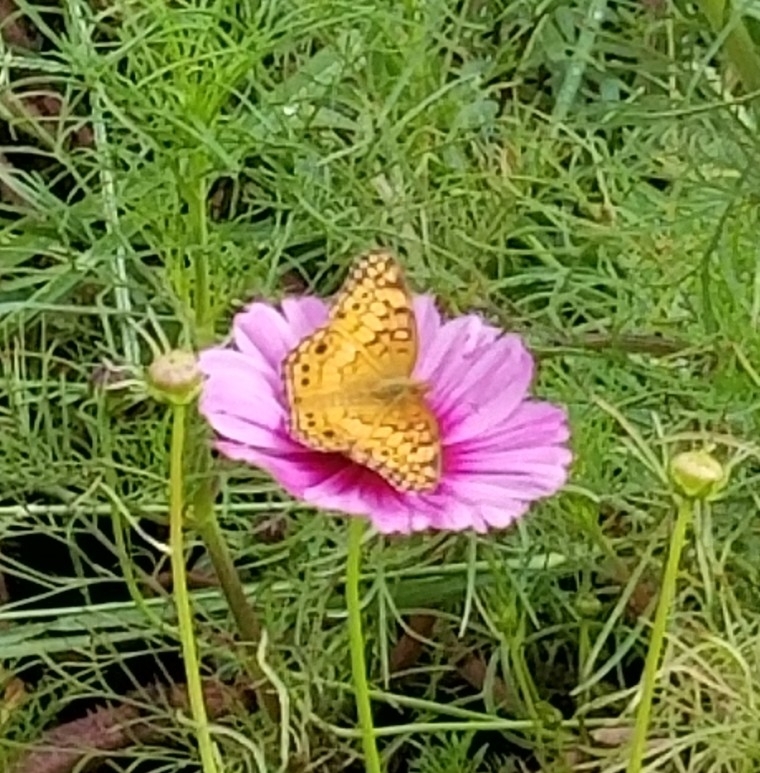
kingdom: Animalia
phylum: Arthropoda
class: Insecta
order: Lepidoptera
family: Nymphalidae
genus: Euptoieta
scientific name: Euptoieta claudia
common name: Variegated fritillary
